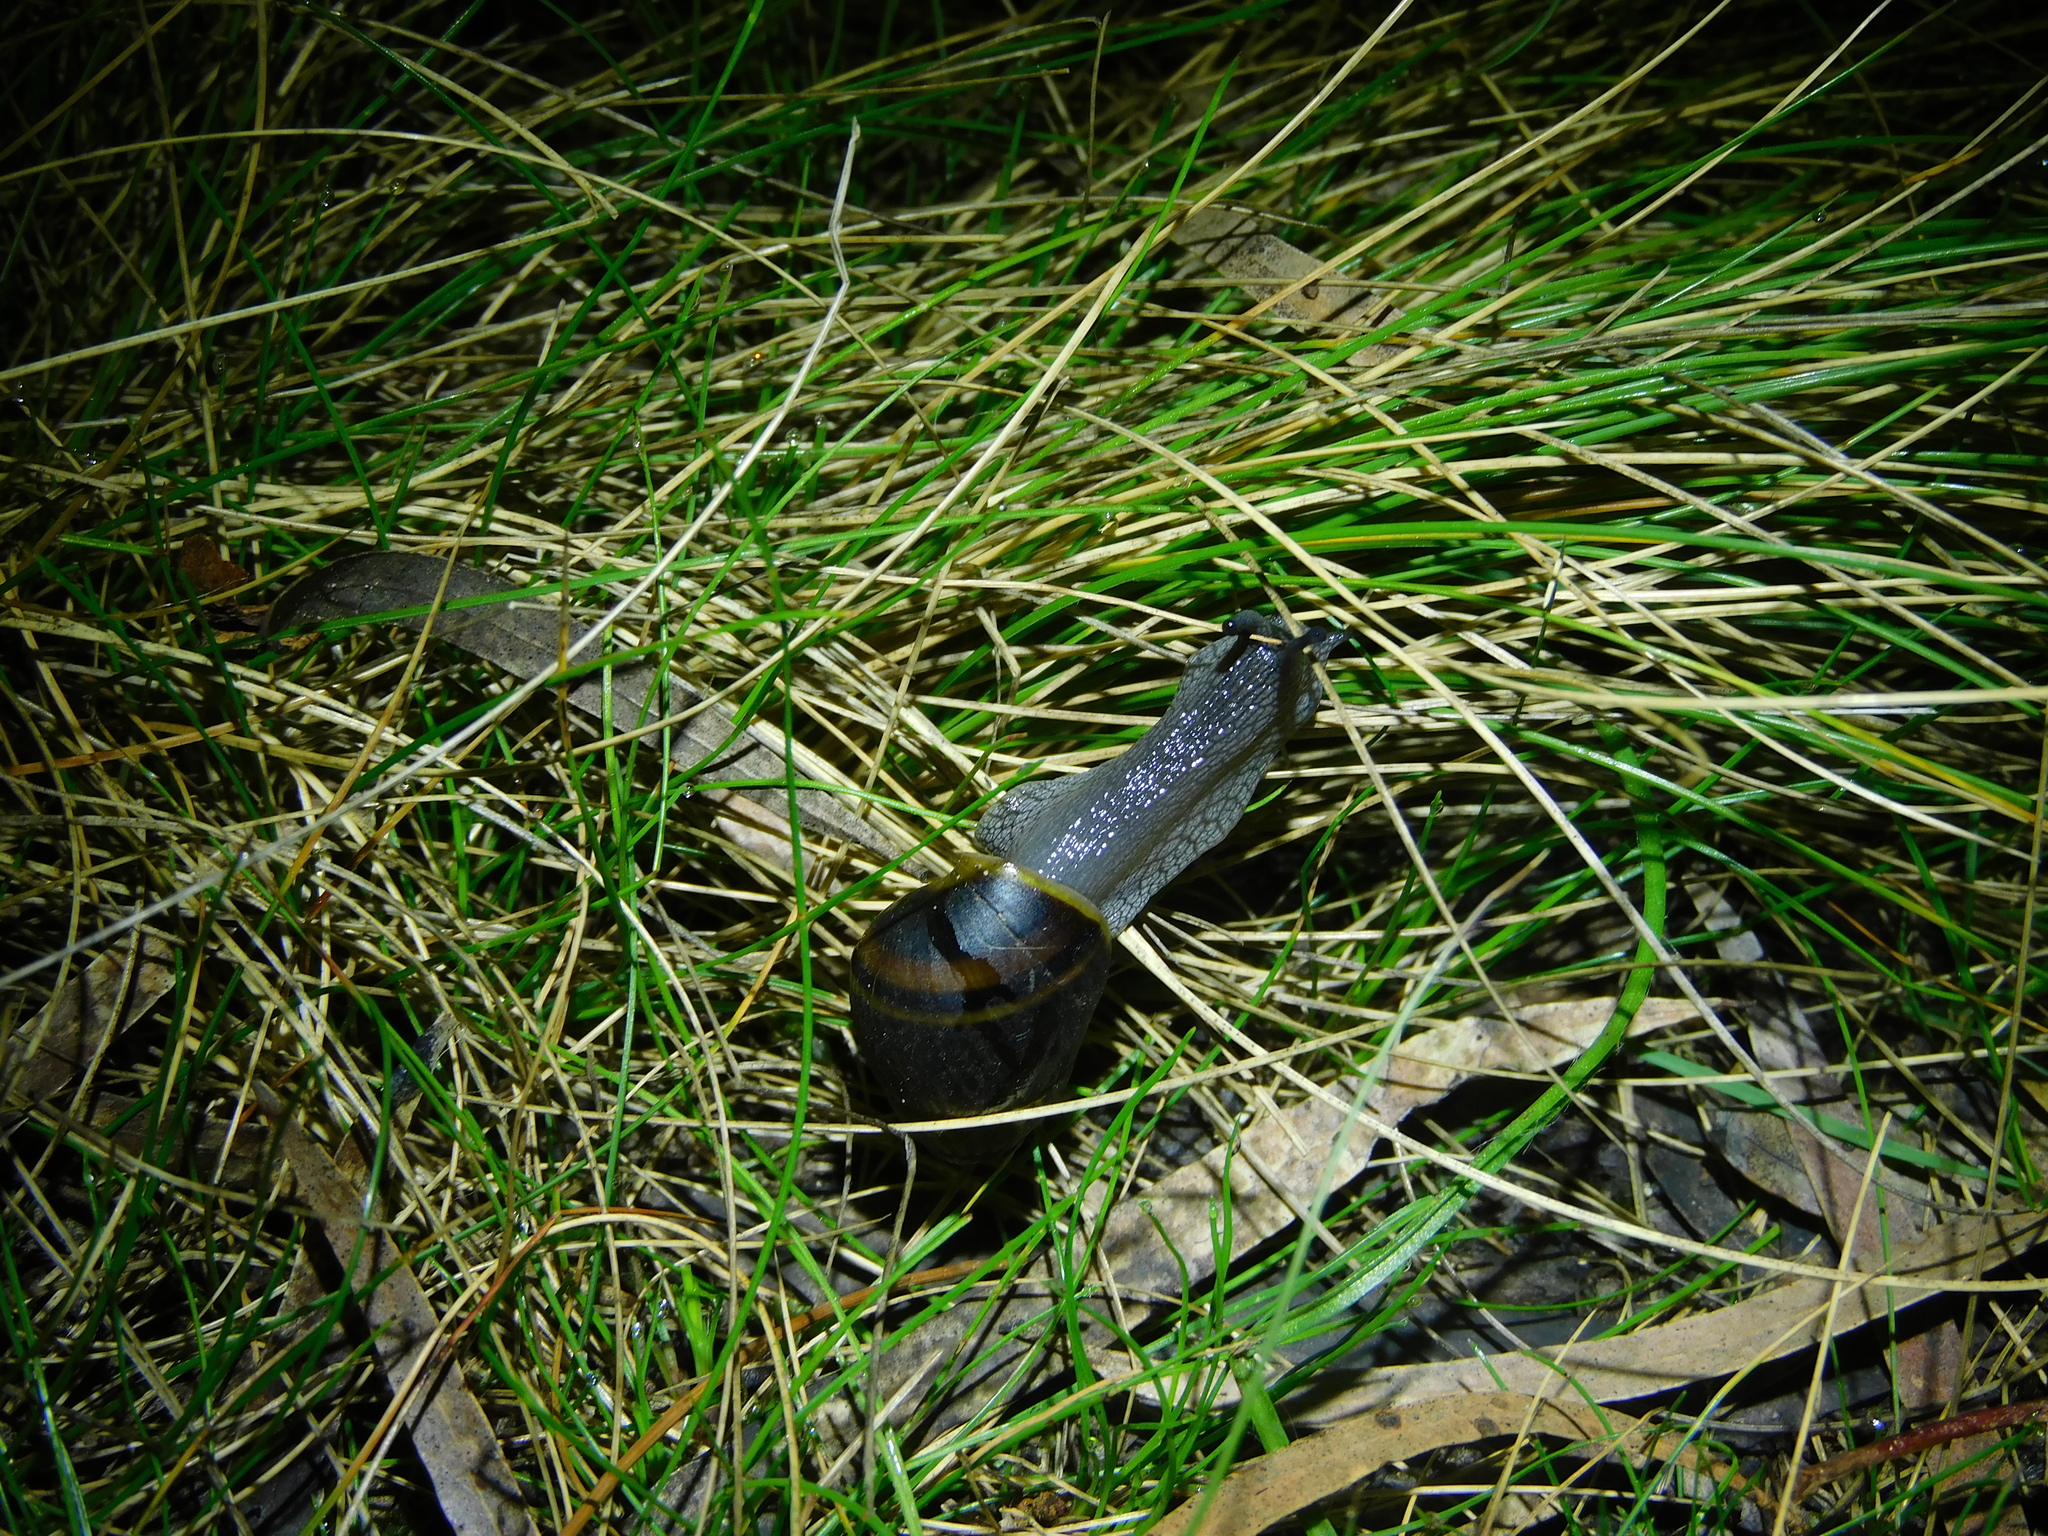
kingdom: Animalia
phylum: Mollusca
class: Gastropoda
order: Stylommatophora
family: Caryodidae
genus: Caryodes
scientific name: Caryodes dufresnii
